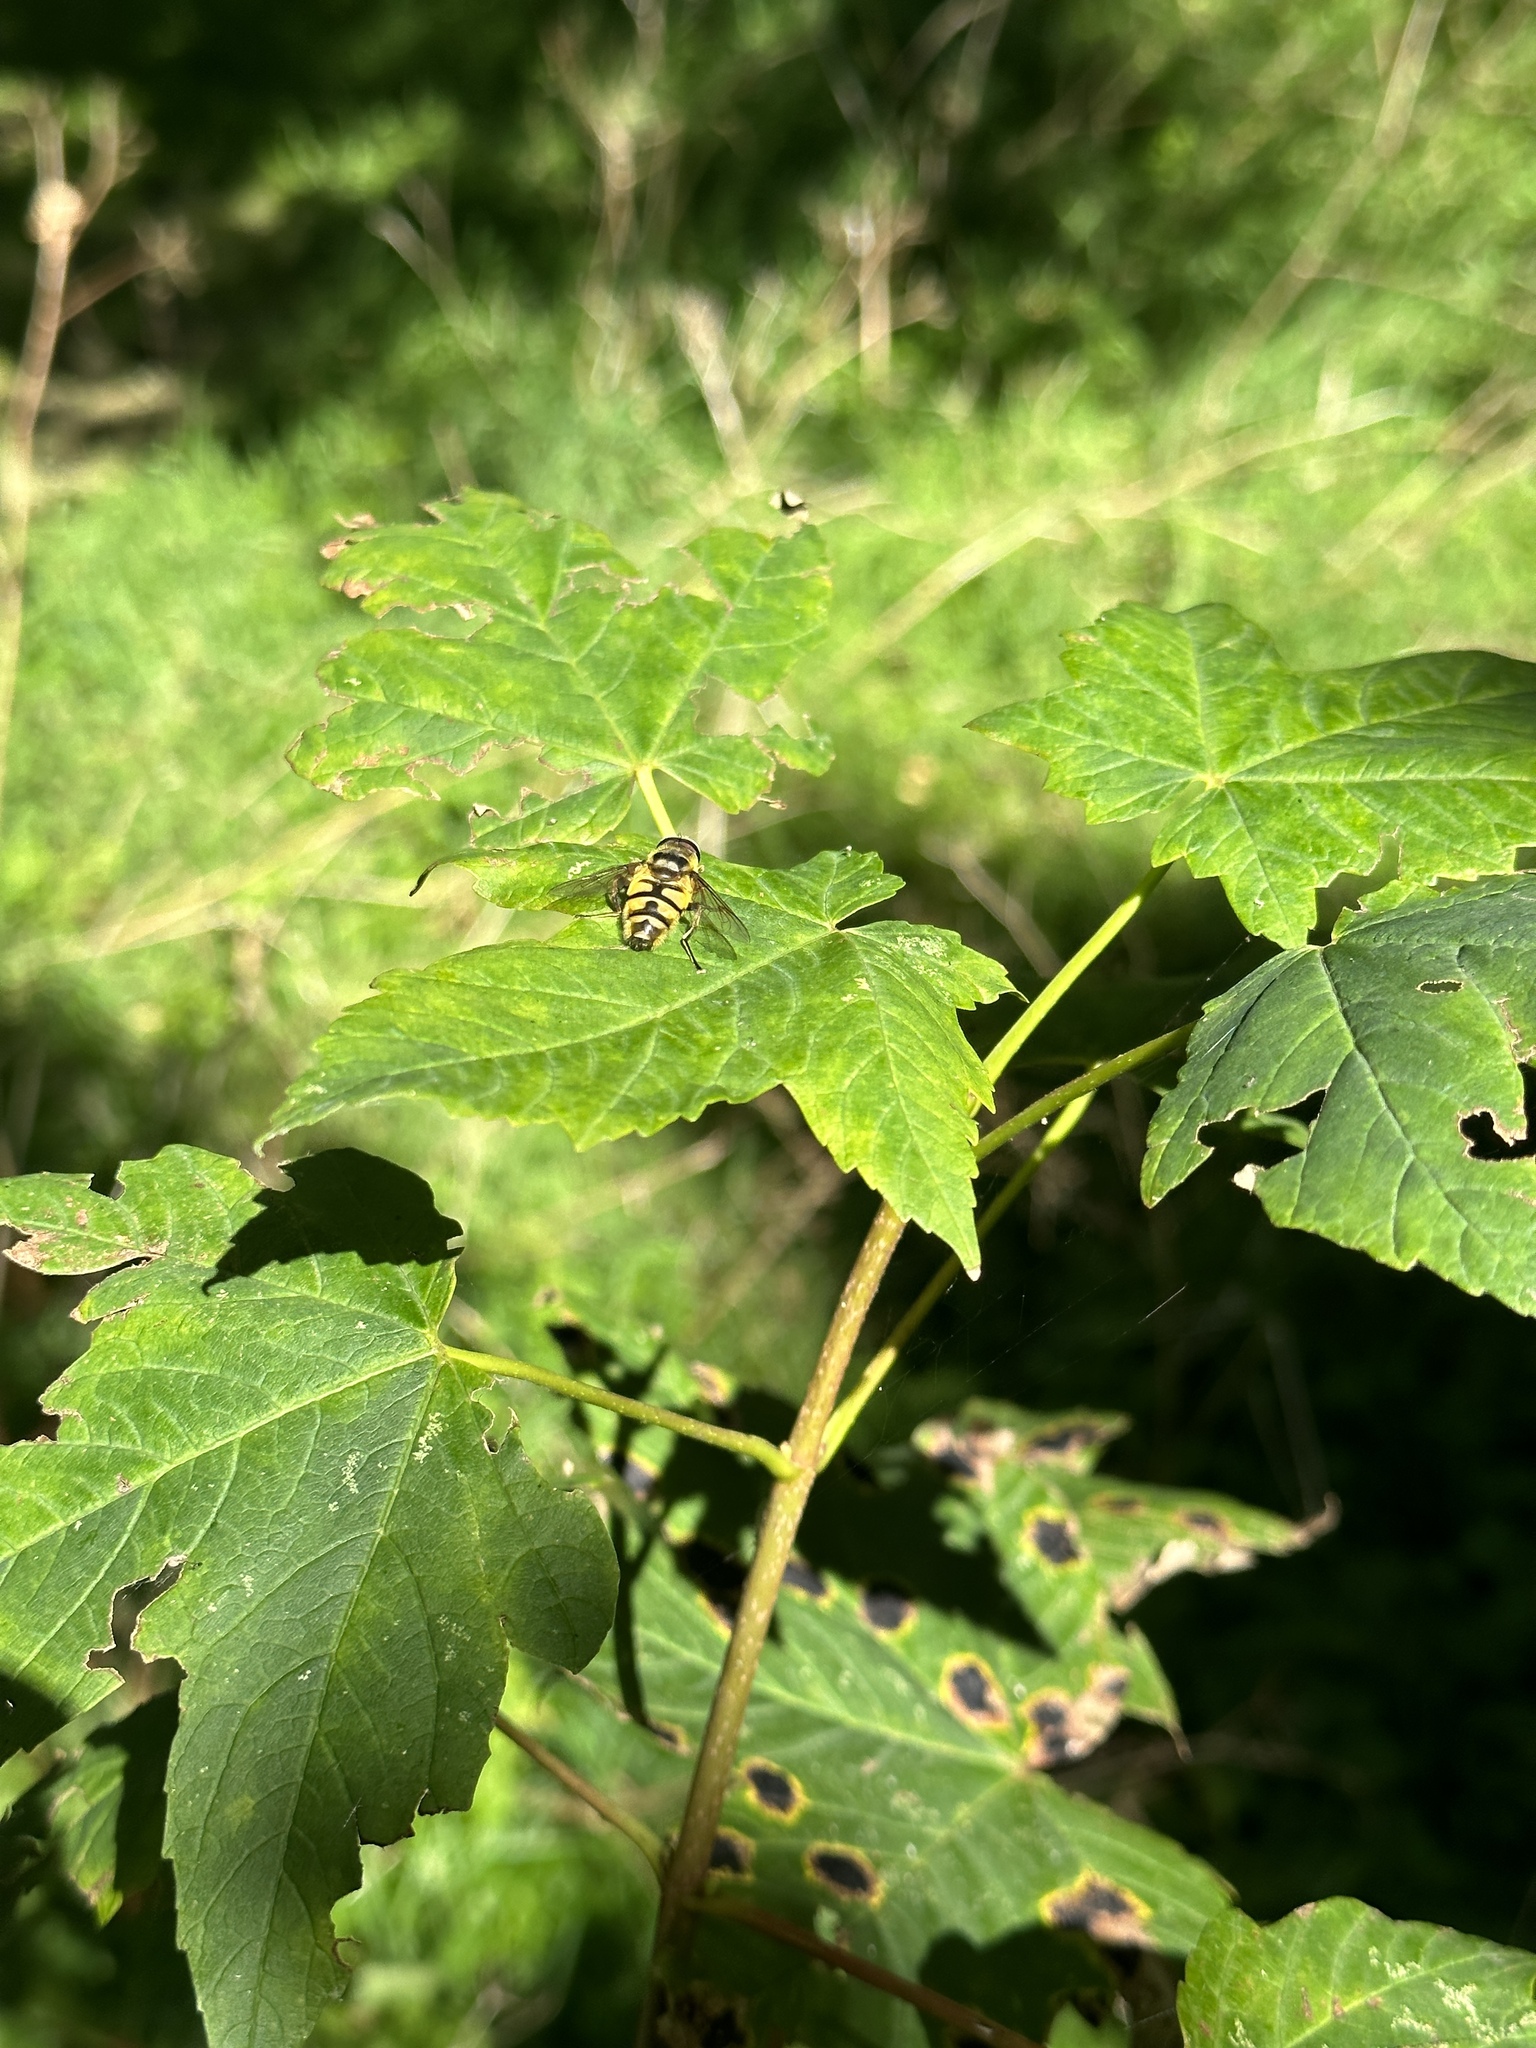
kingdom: Animalia
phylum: Arthropoda
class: Insecta
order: Diptera
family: Syrphidae
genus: Myathropa
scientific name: Myathropa florea
